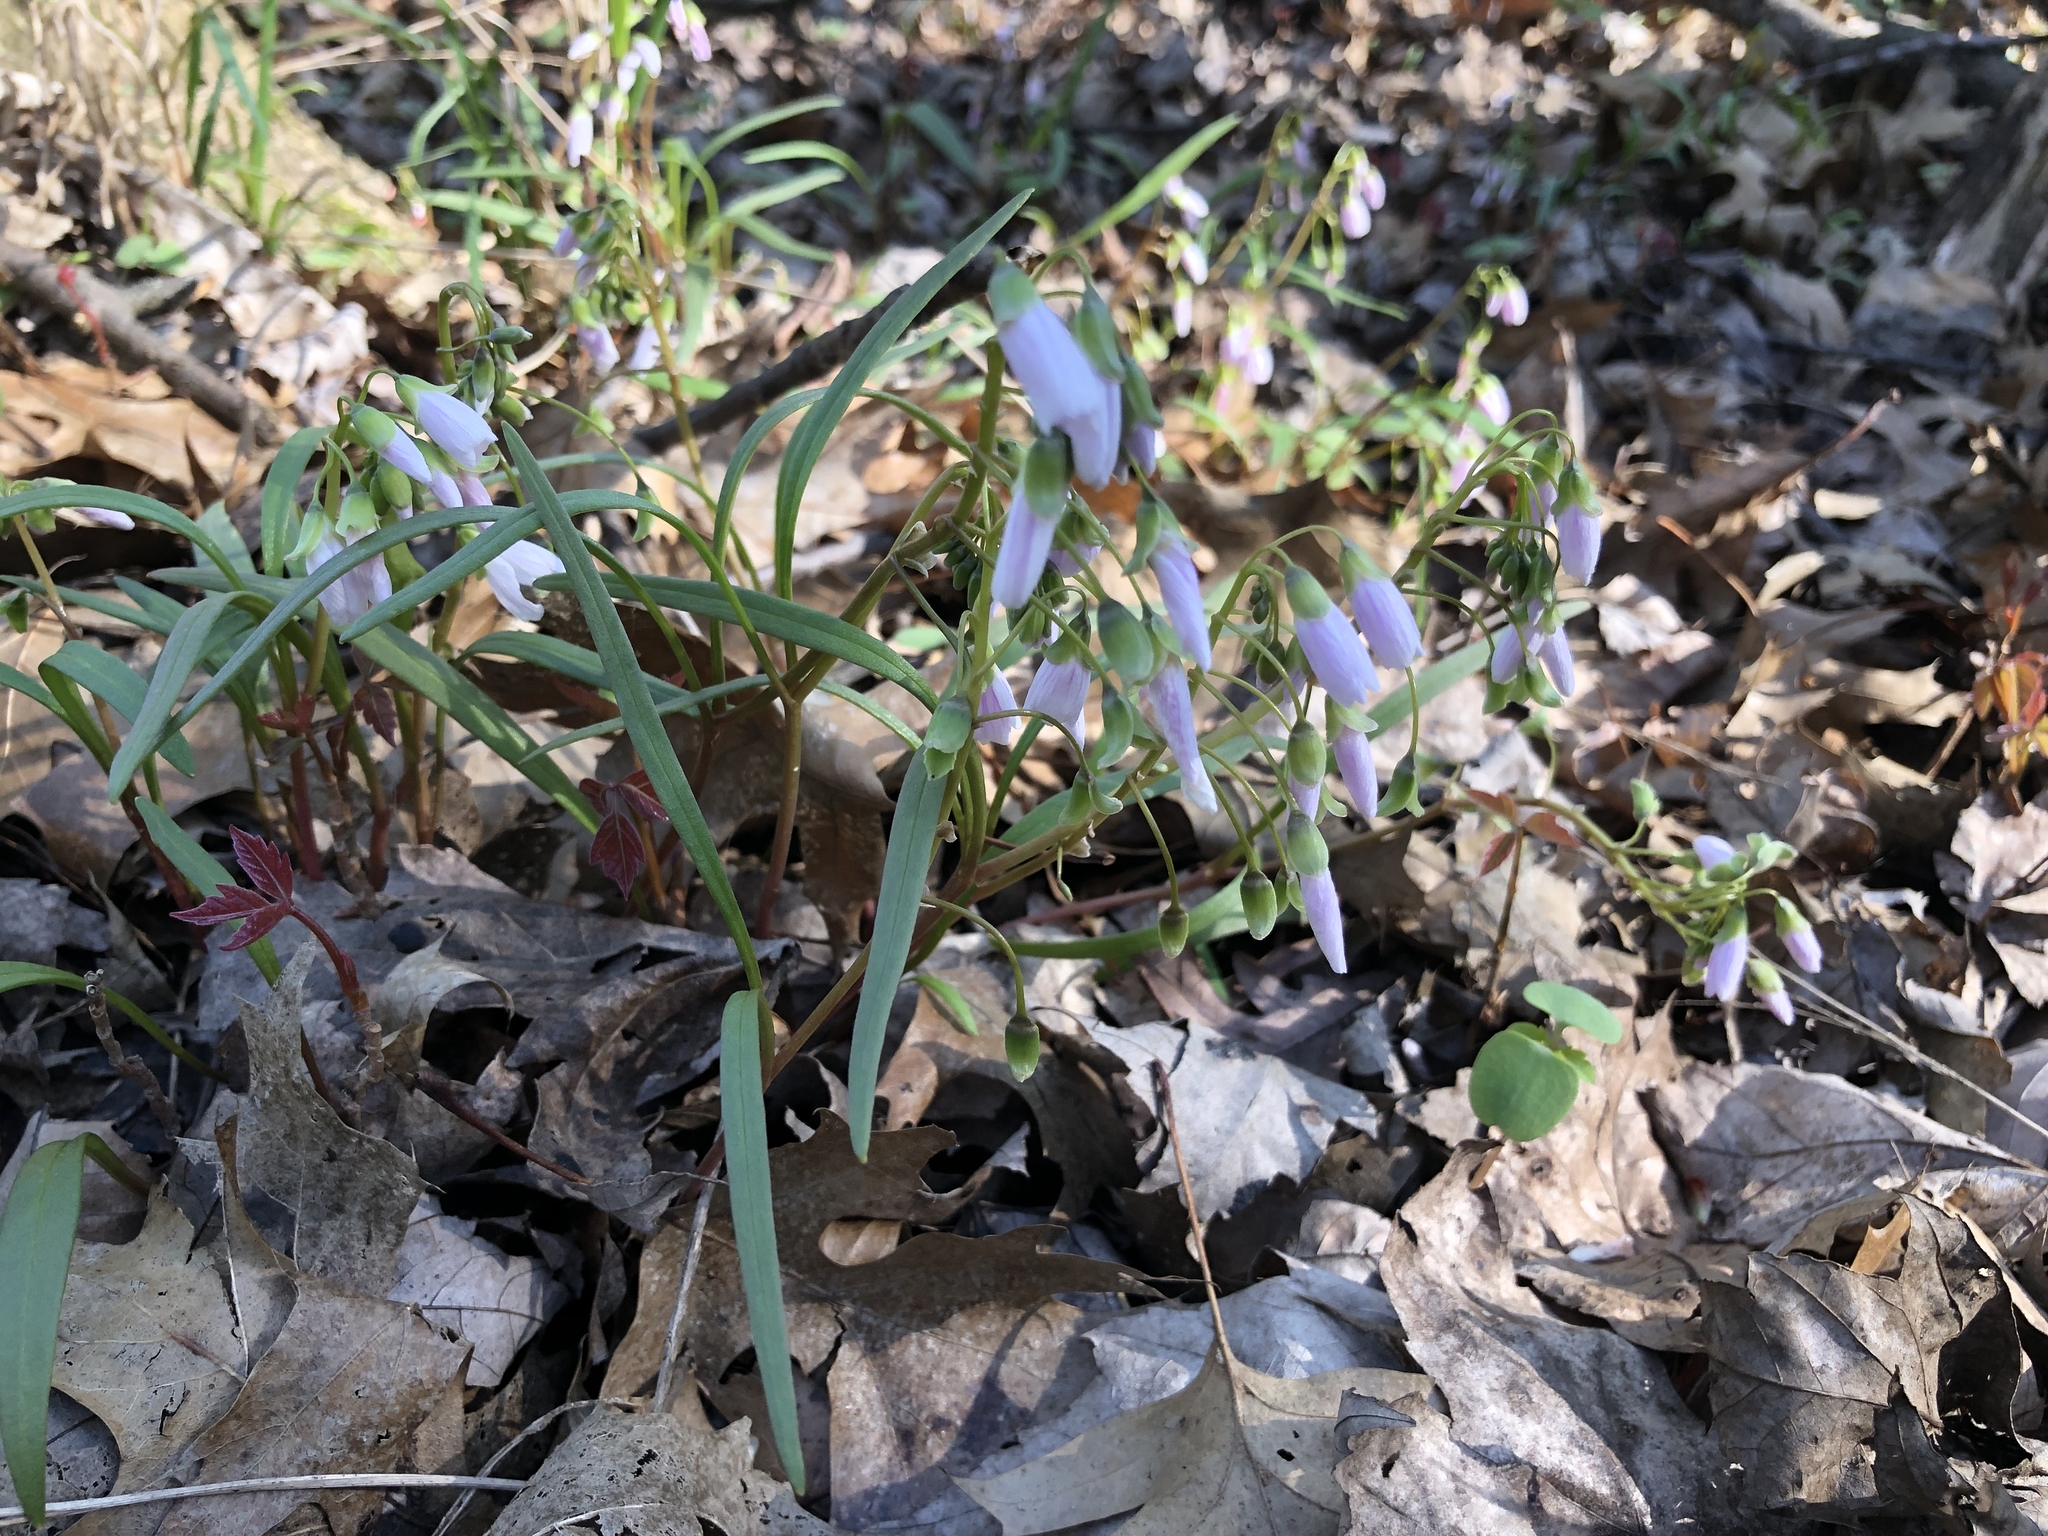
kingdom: Plantae
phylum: Tracheophyta
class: Magnoliopsida
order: Caryophyllales
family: Montiaceae
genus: Claytonia
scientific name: Claytonia virginica
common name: Virginia springbeauty
